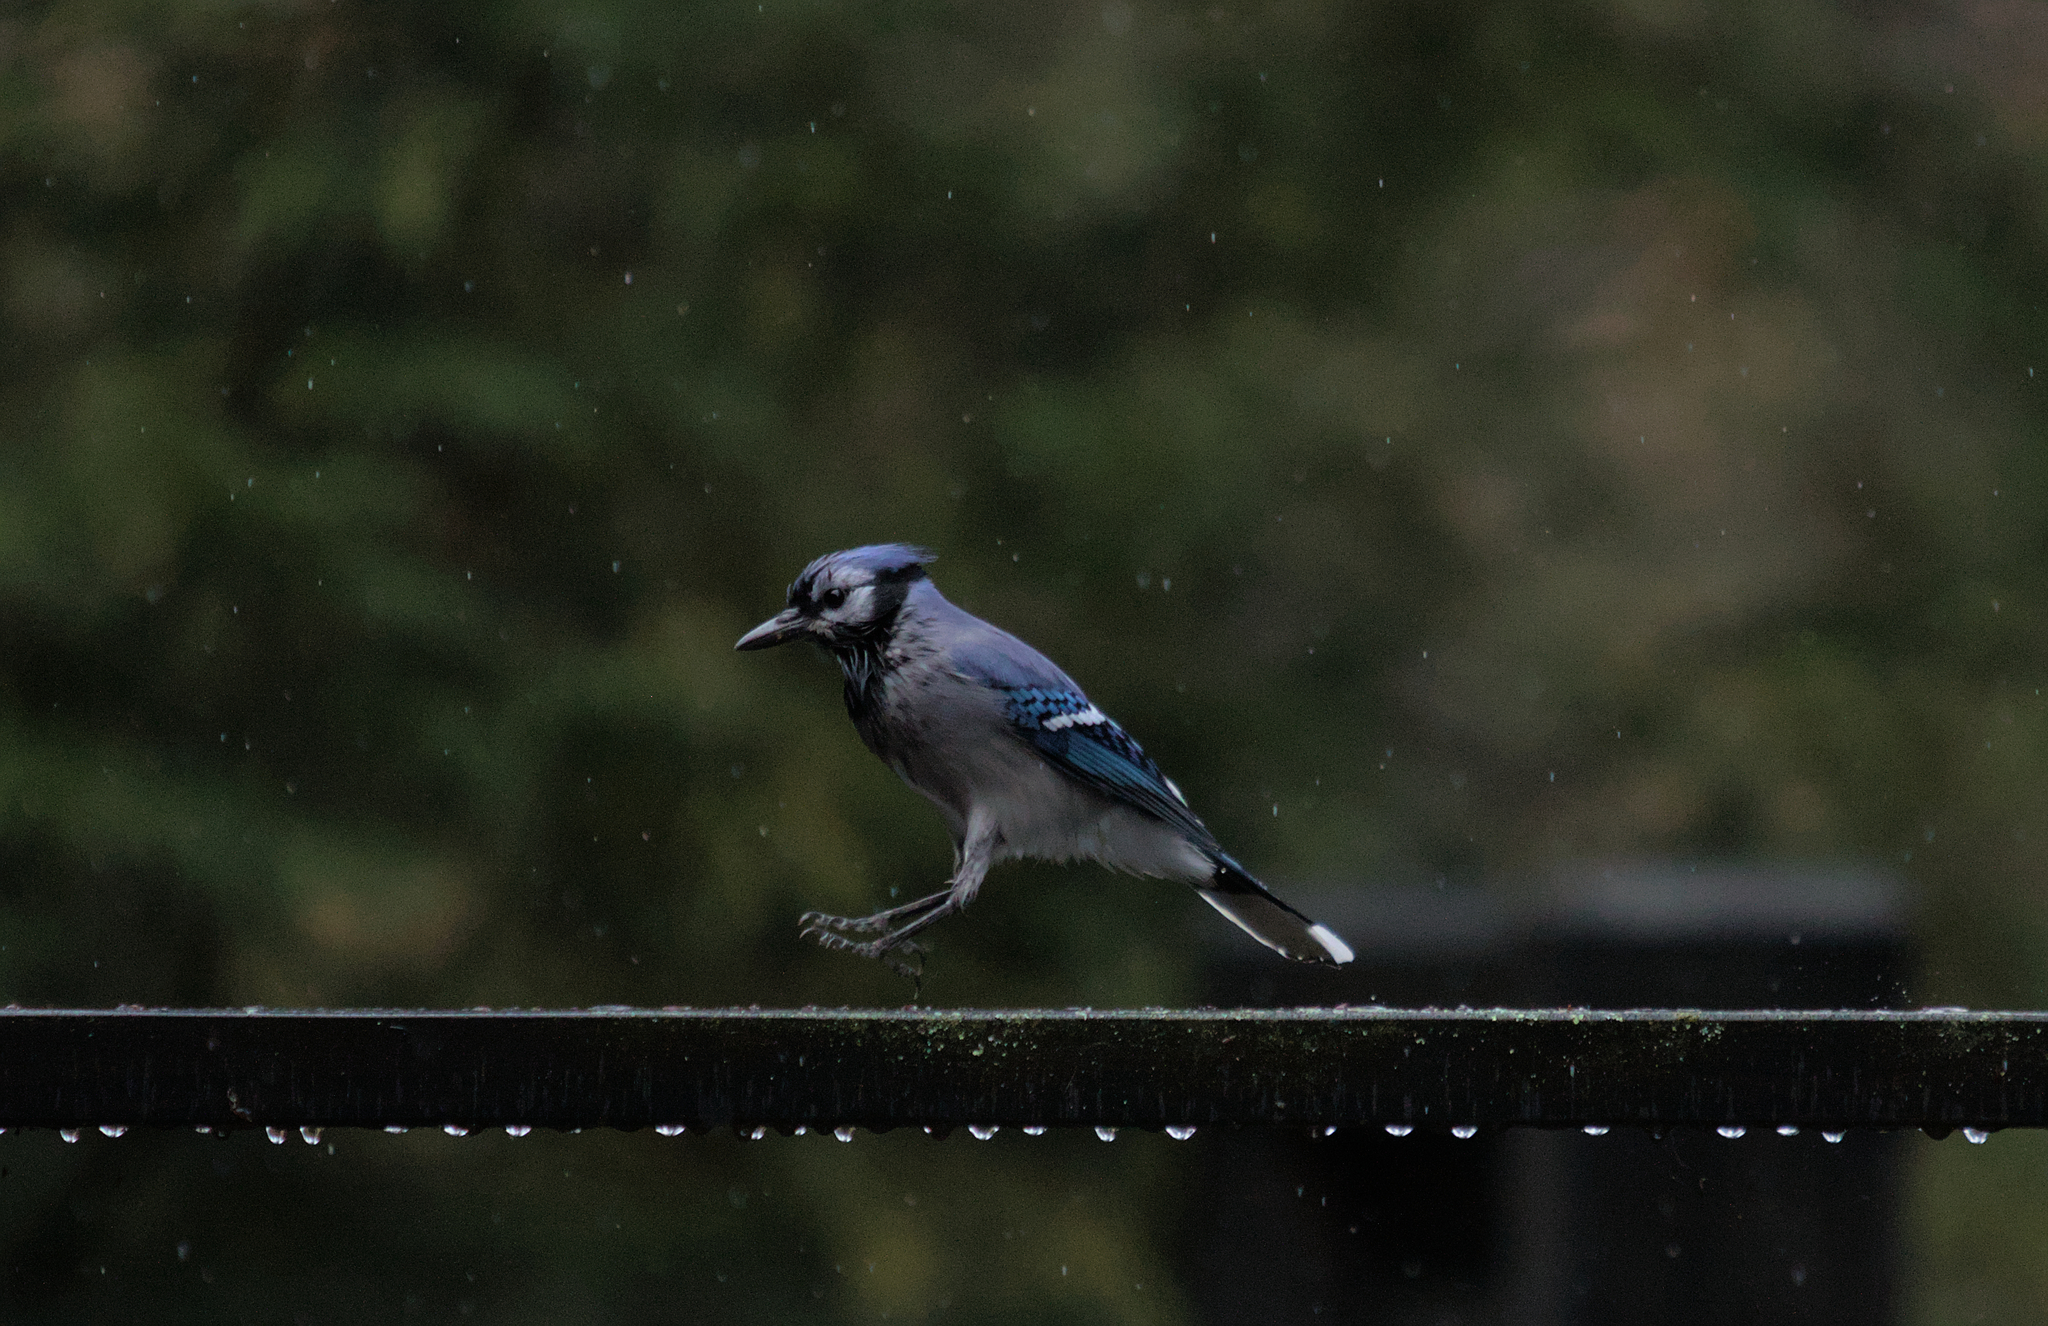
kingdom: Animalia
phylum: Chordata
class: Aves
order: Passeriformes
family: Corvidae
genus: Cyanocitta
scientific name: Cyanocitta cristata
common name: Blue jay
